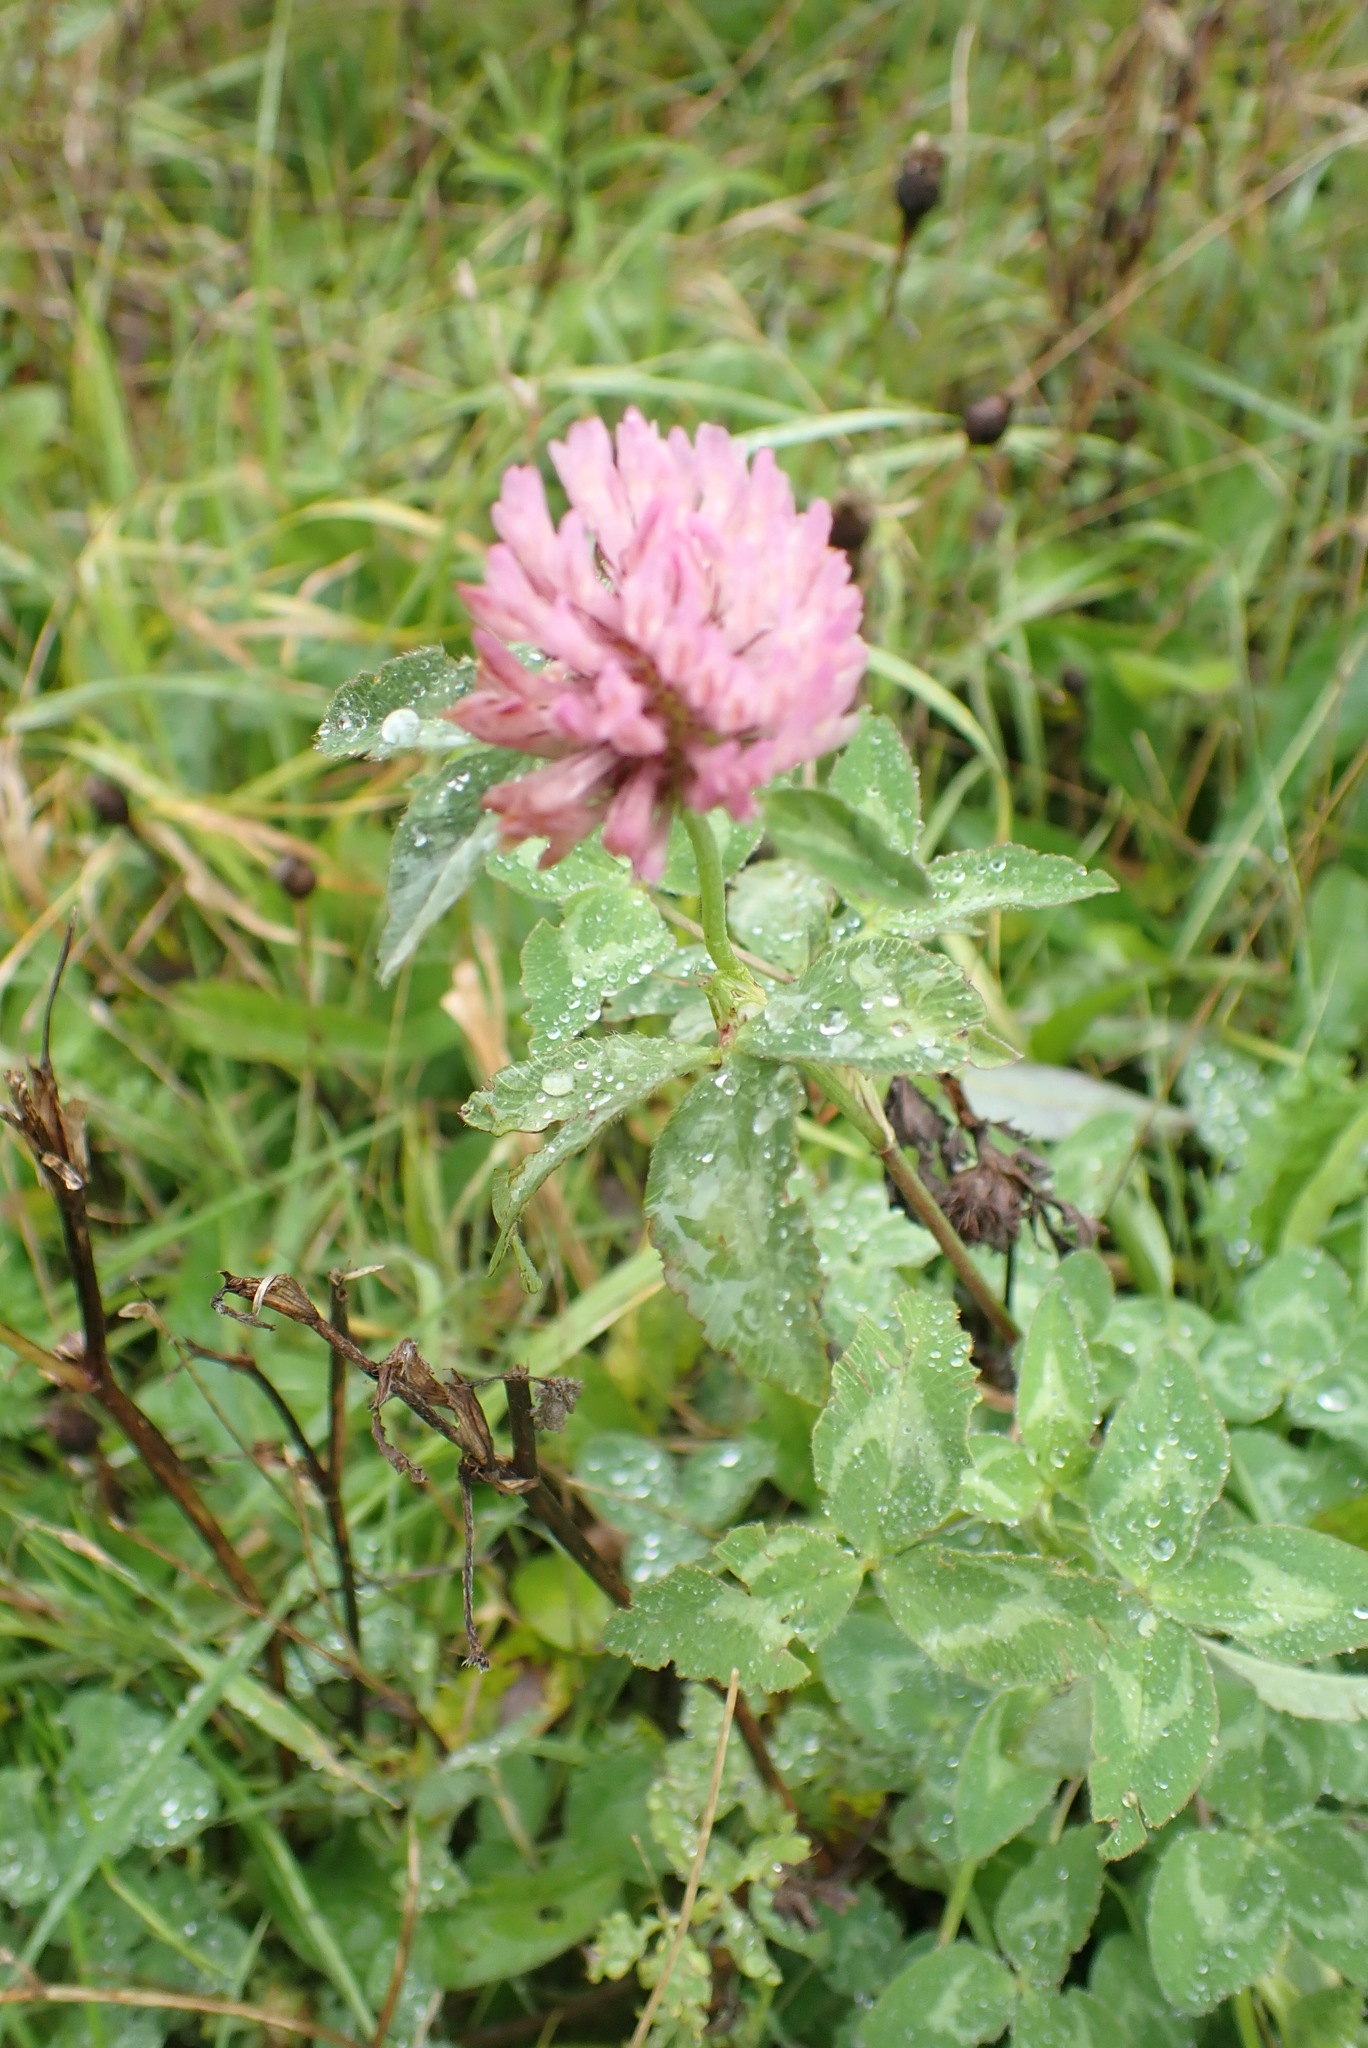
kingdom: Plantae
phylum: Tracheophyta
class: Magnoliopsida
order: Fabales
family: Fabaceae
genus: Trifolium
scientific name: Trifolium pratense
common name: Red clover
